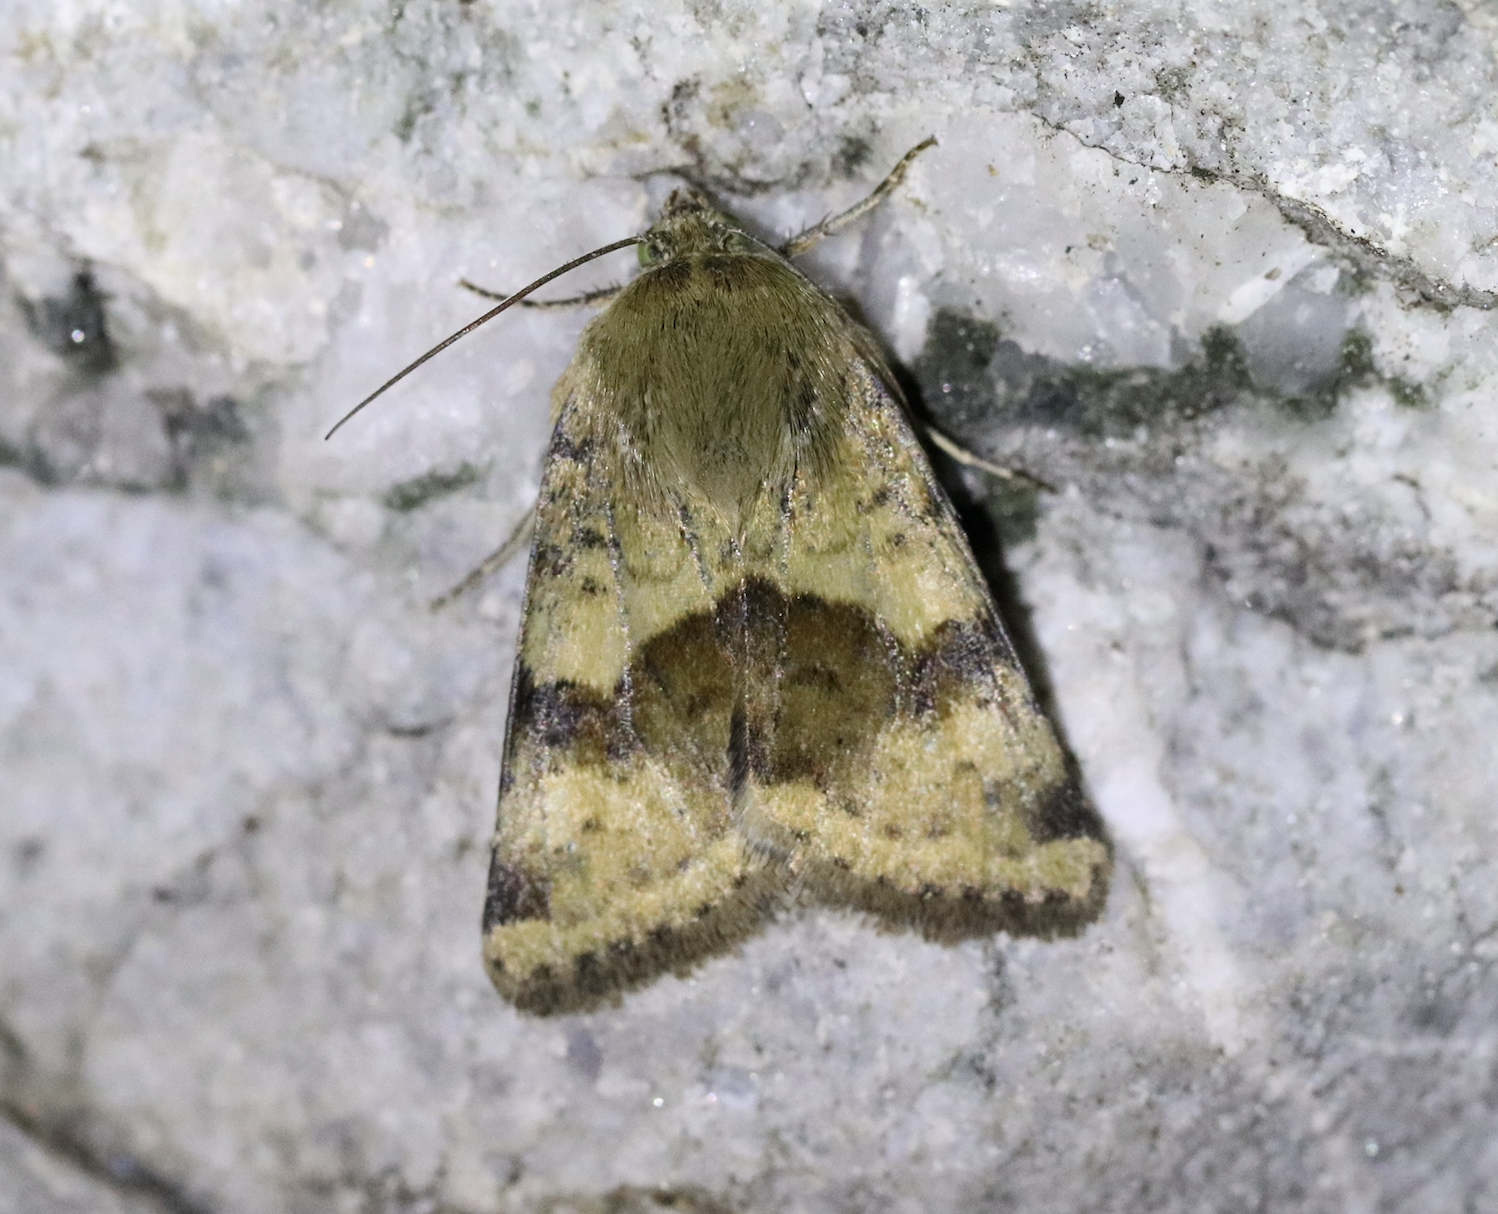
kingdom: Animalia
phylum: Arthropoda
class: Insecta
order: Lepidoptera
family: Noctuidae
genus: Heliothis
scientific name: Heliothis viriplaca
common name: Marbled clover
